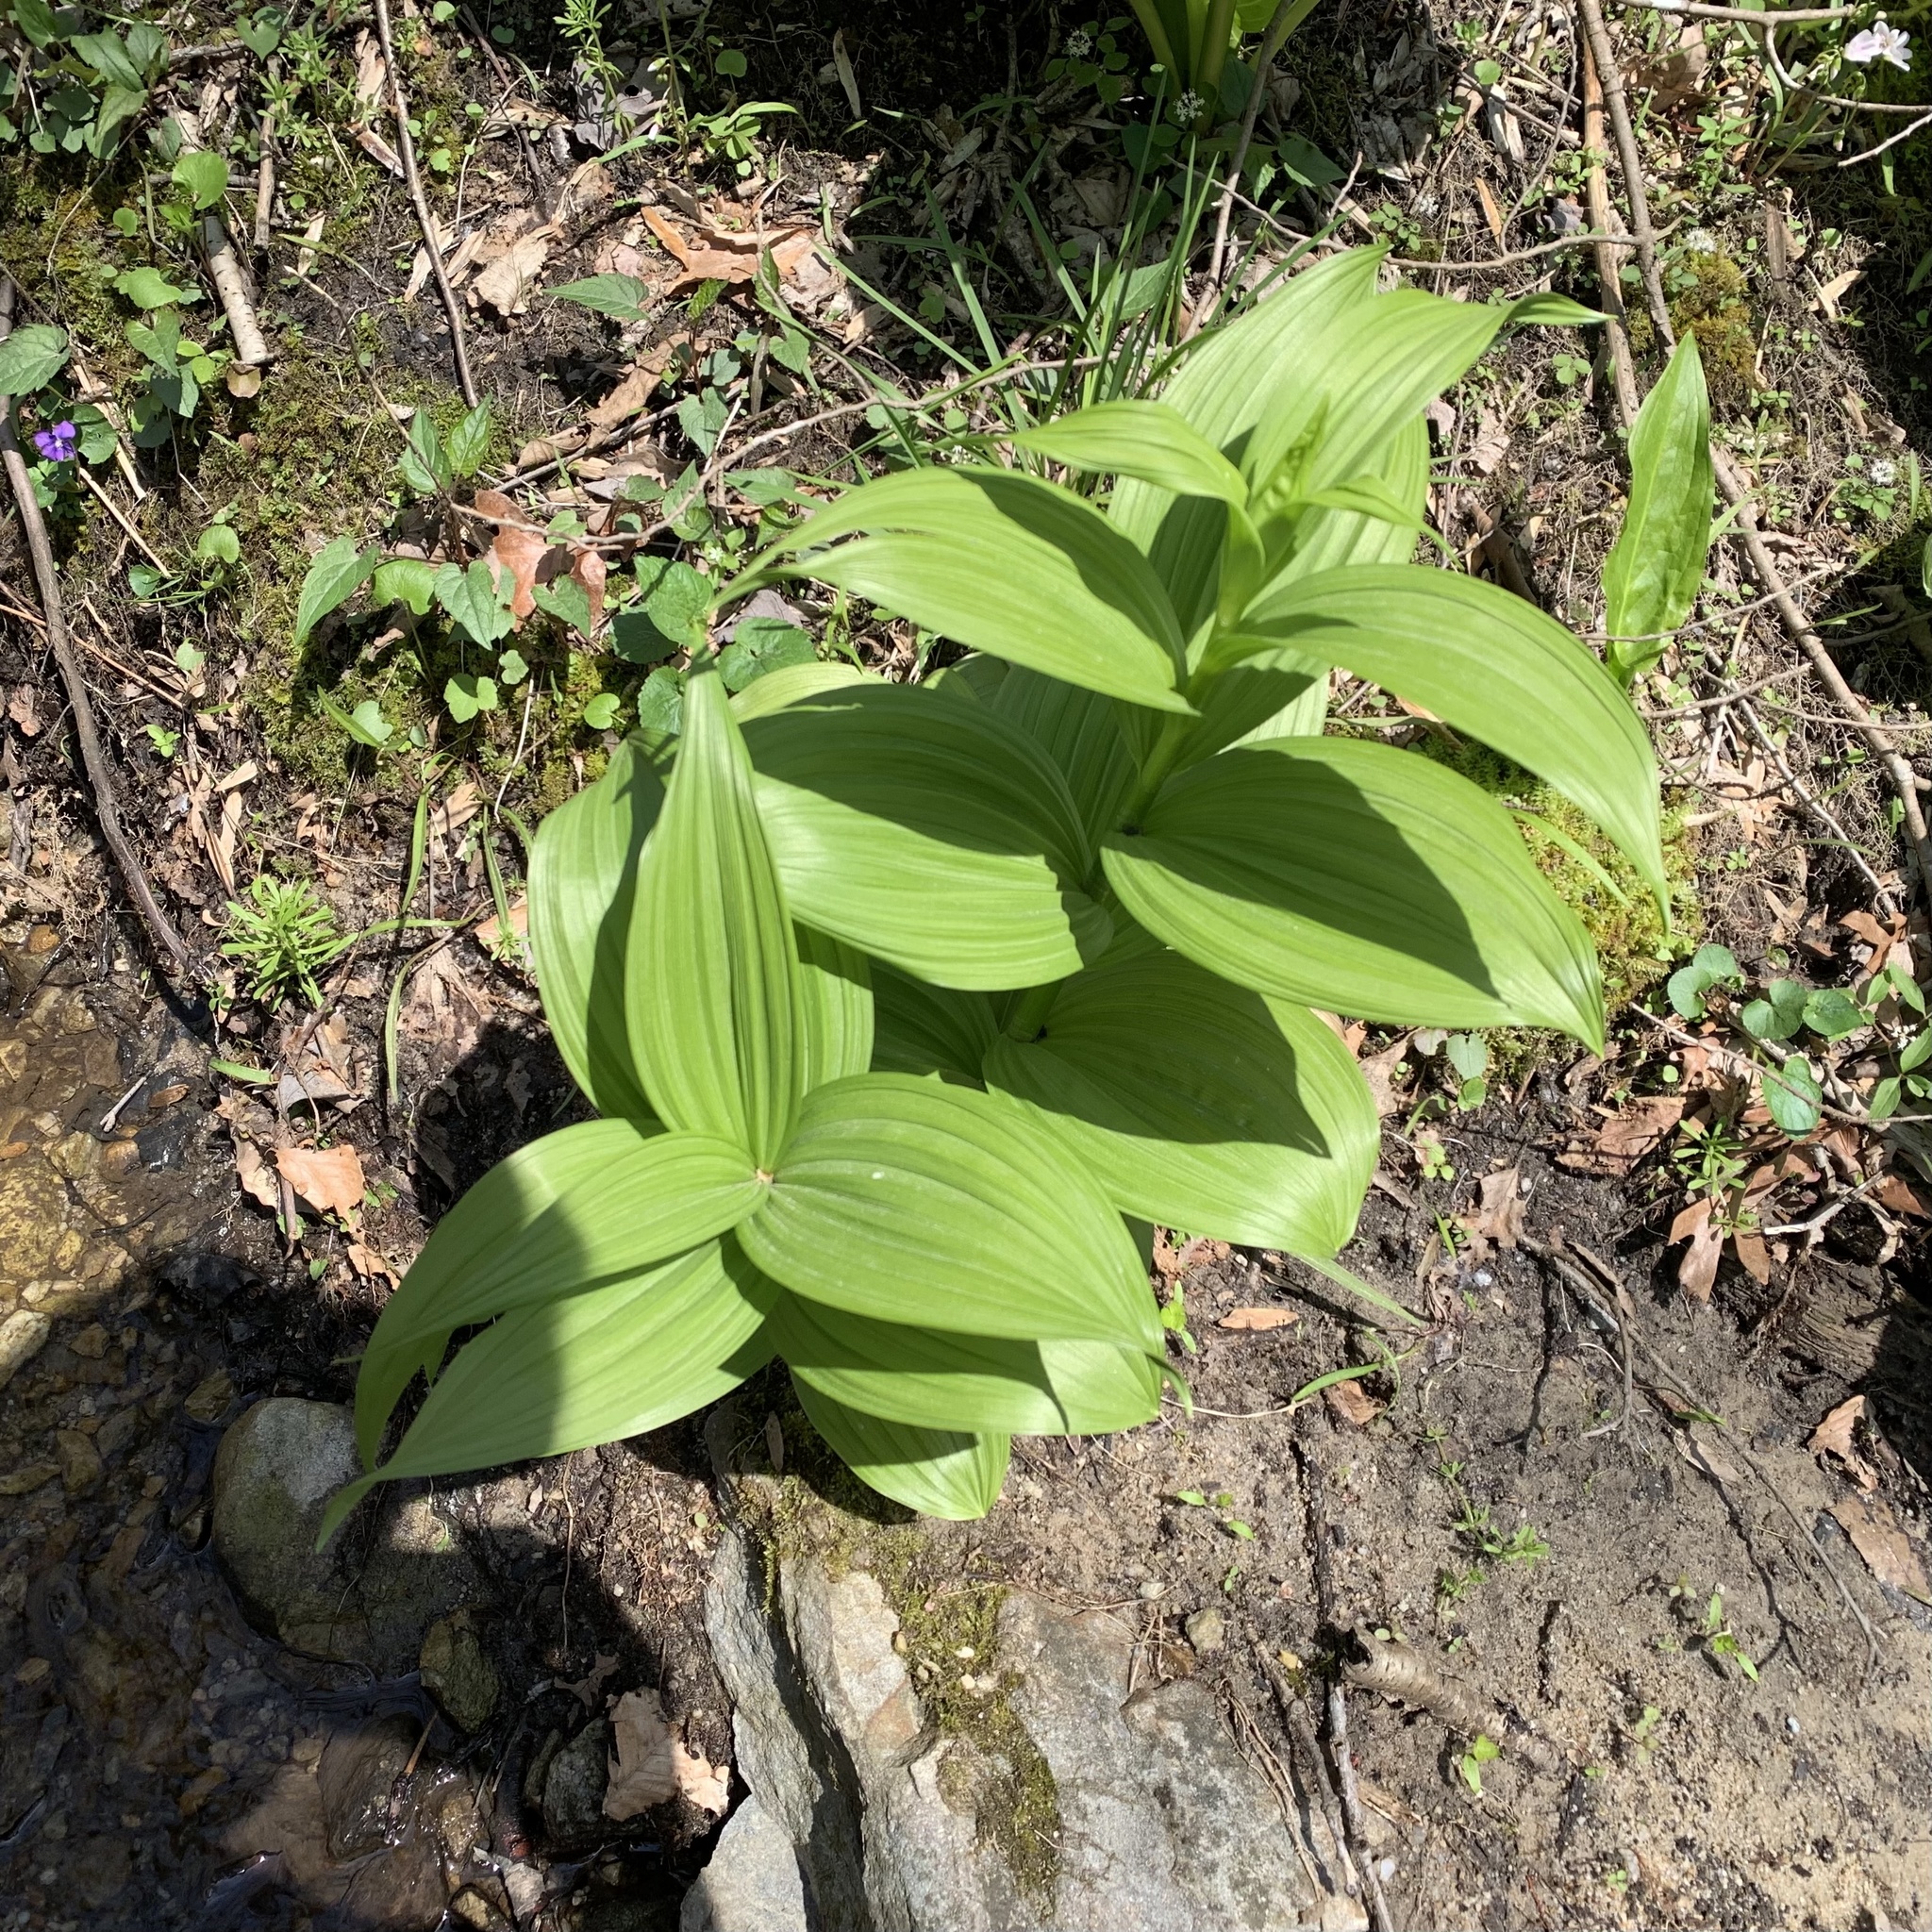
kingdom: Plantae
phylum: Tracheophyta
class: Liliopsida
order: Liliales
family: Melanthiaceae
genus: Veratrum
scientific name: Veratrum viride
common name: American false hellebore
